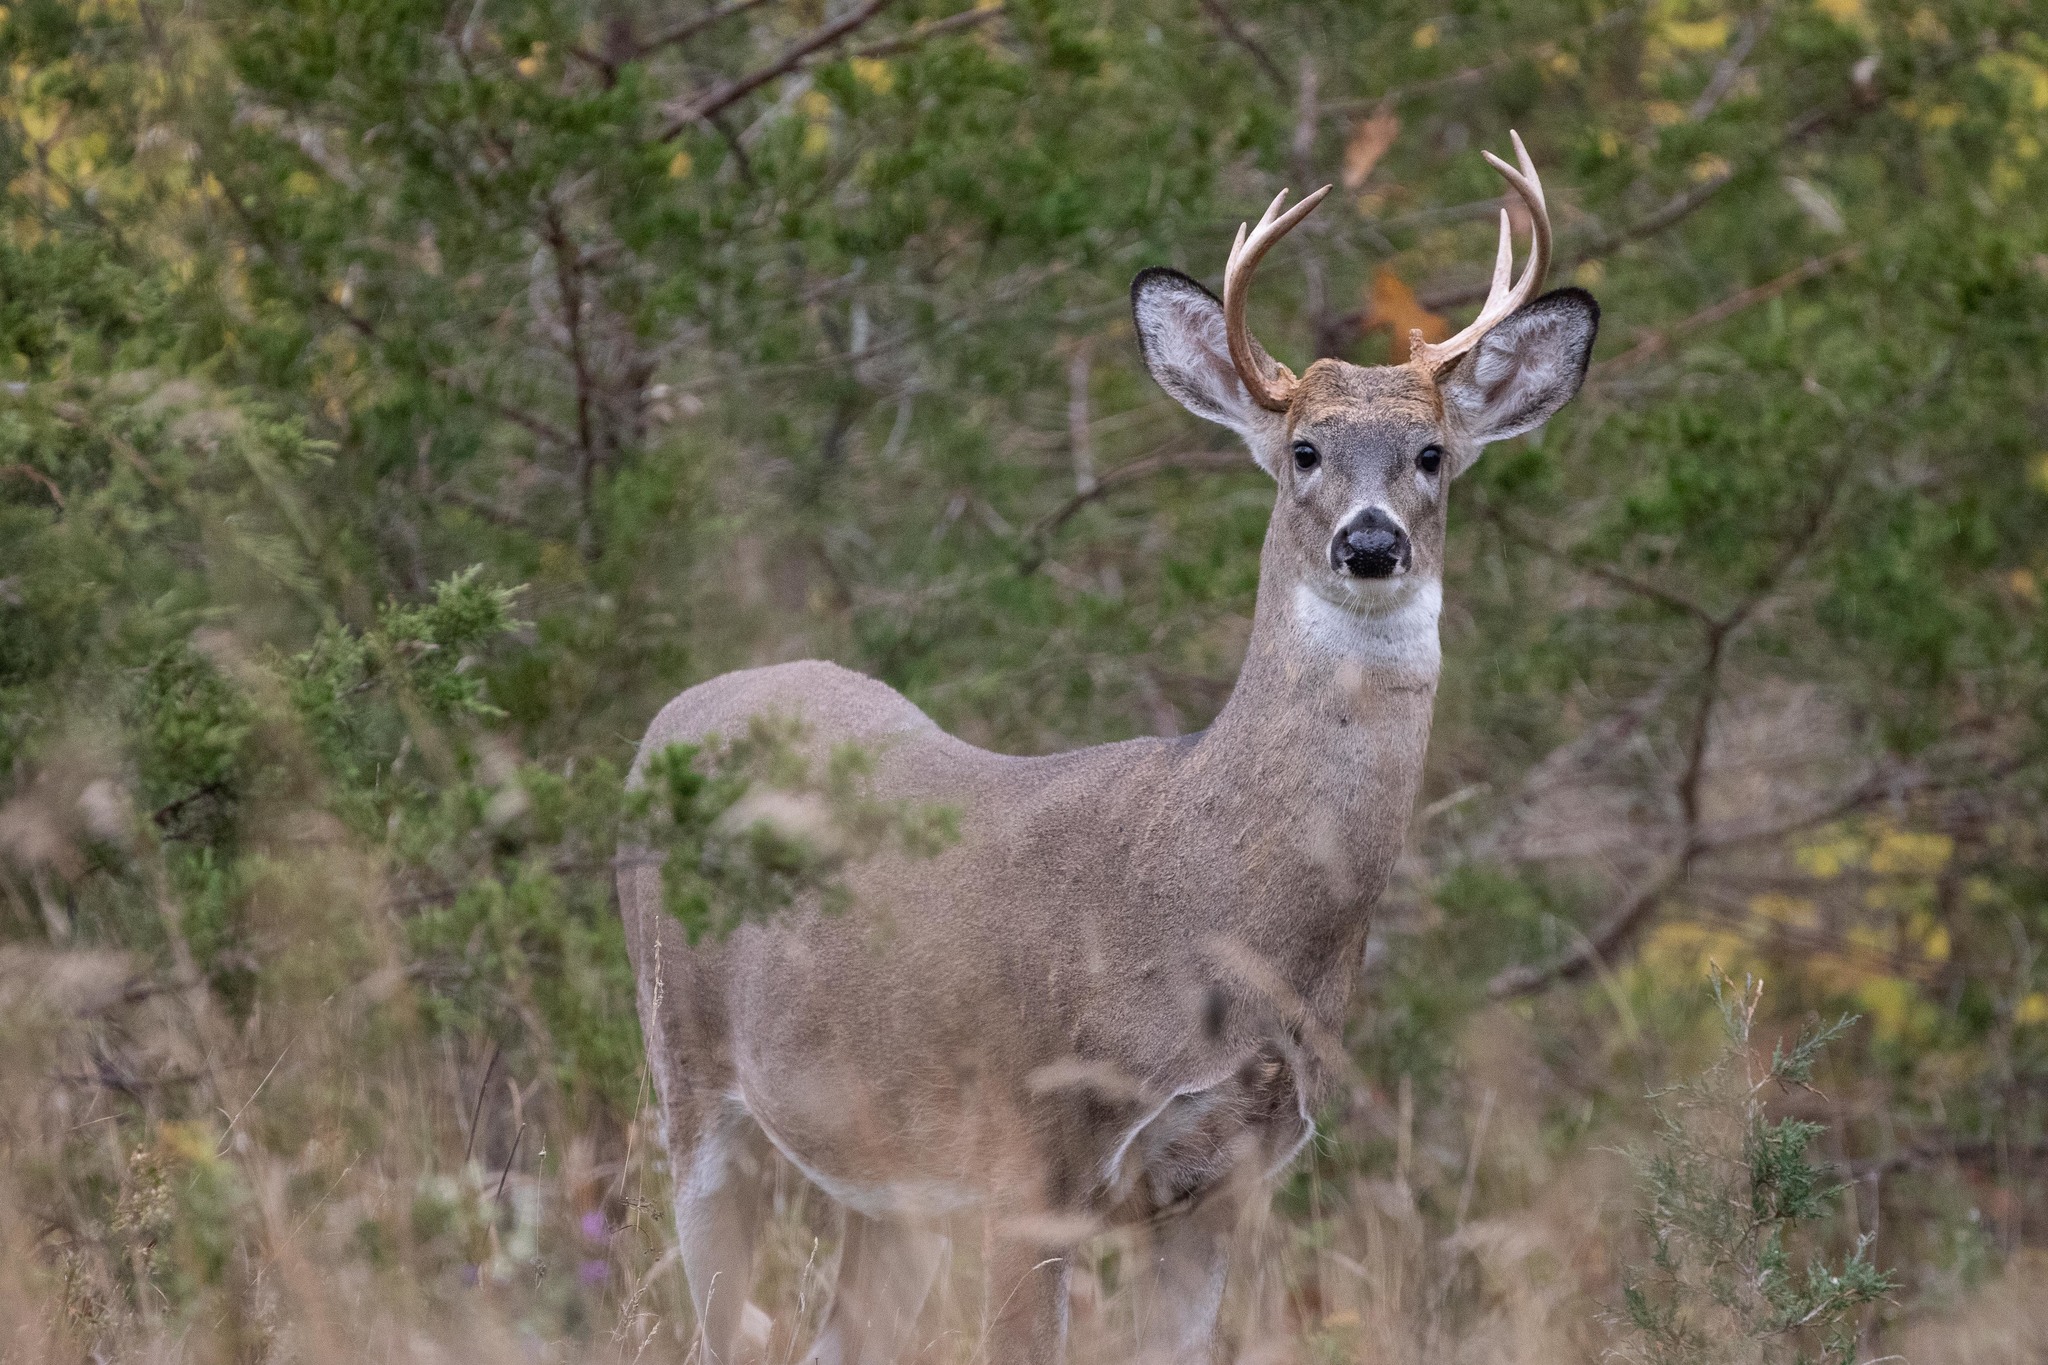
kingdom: Animalia
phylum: Chordata
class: Mammalia
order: Artiodactyla
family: Cervidae
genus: Odocoileus
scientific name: Odocoileus virginianus
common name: White-tailed deer
